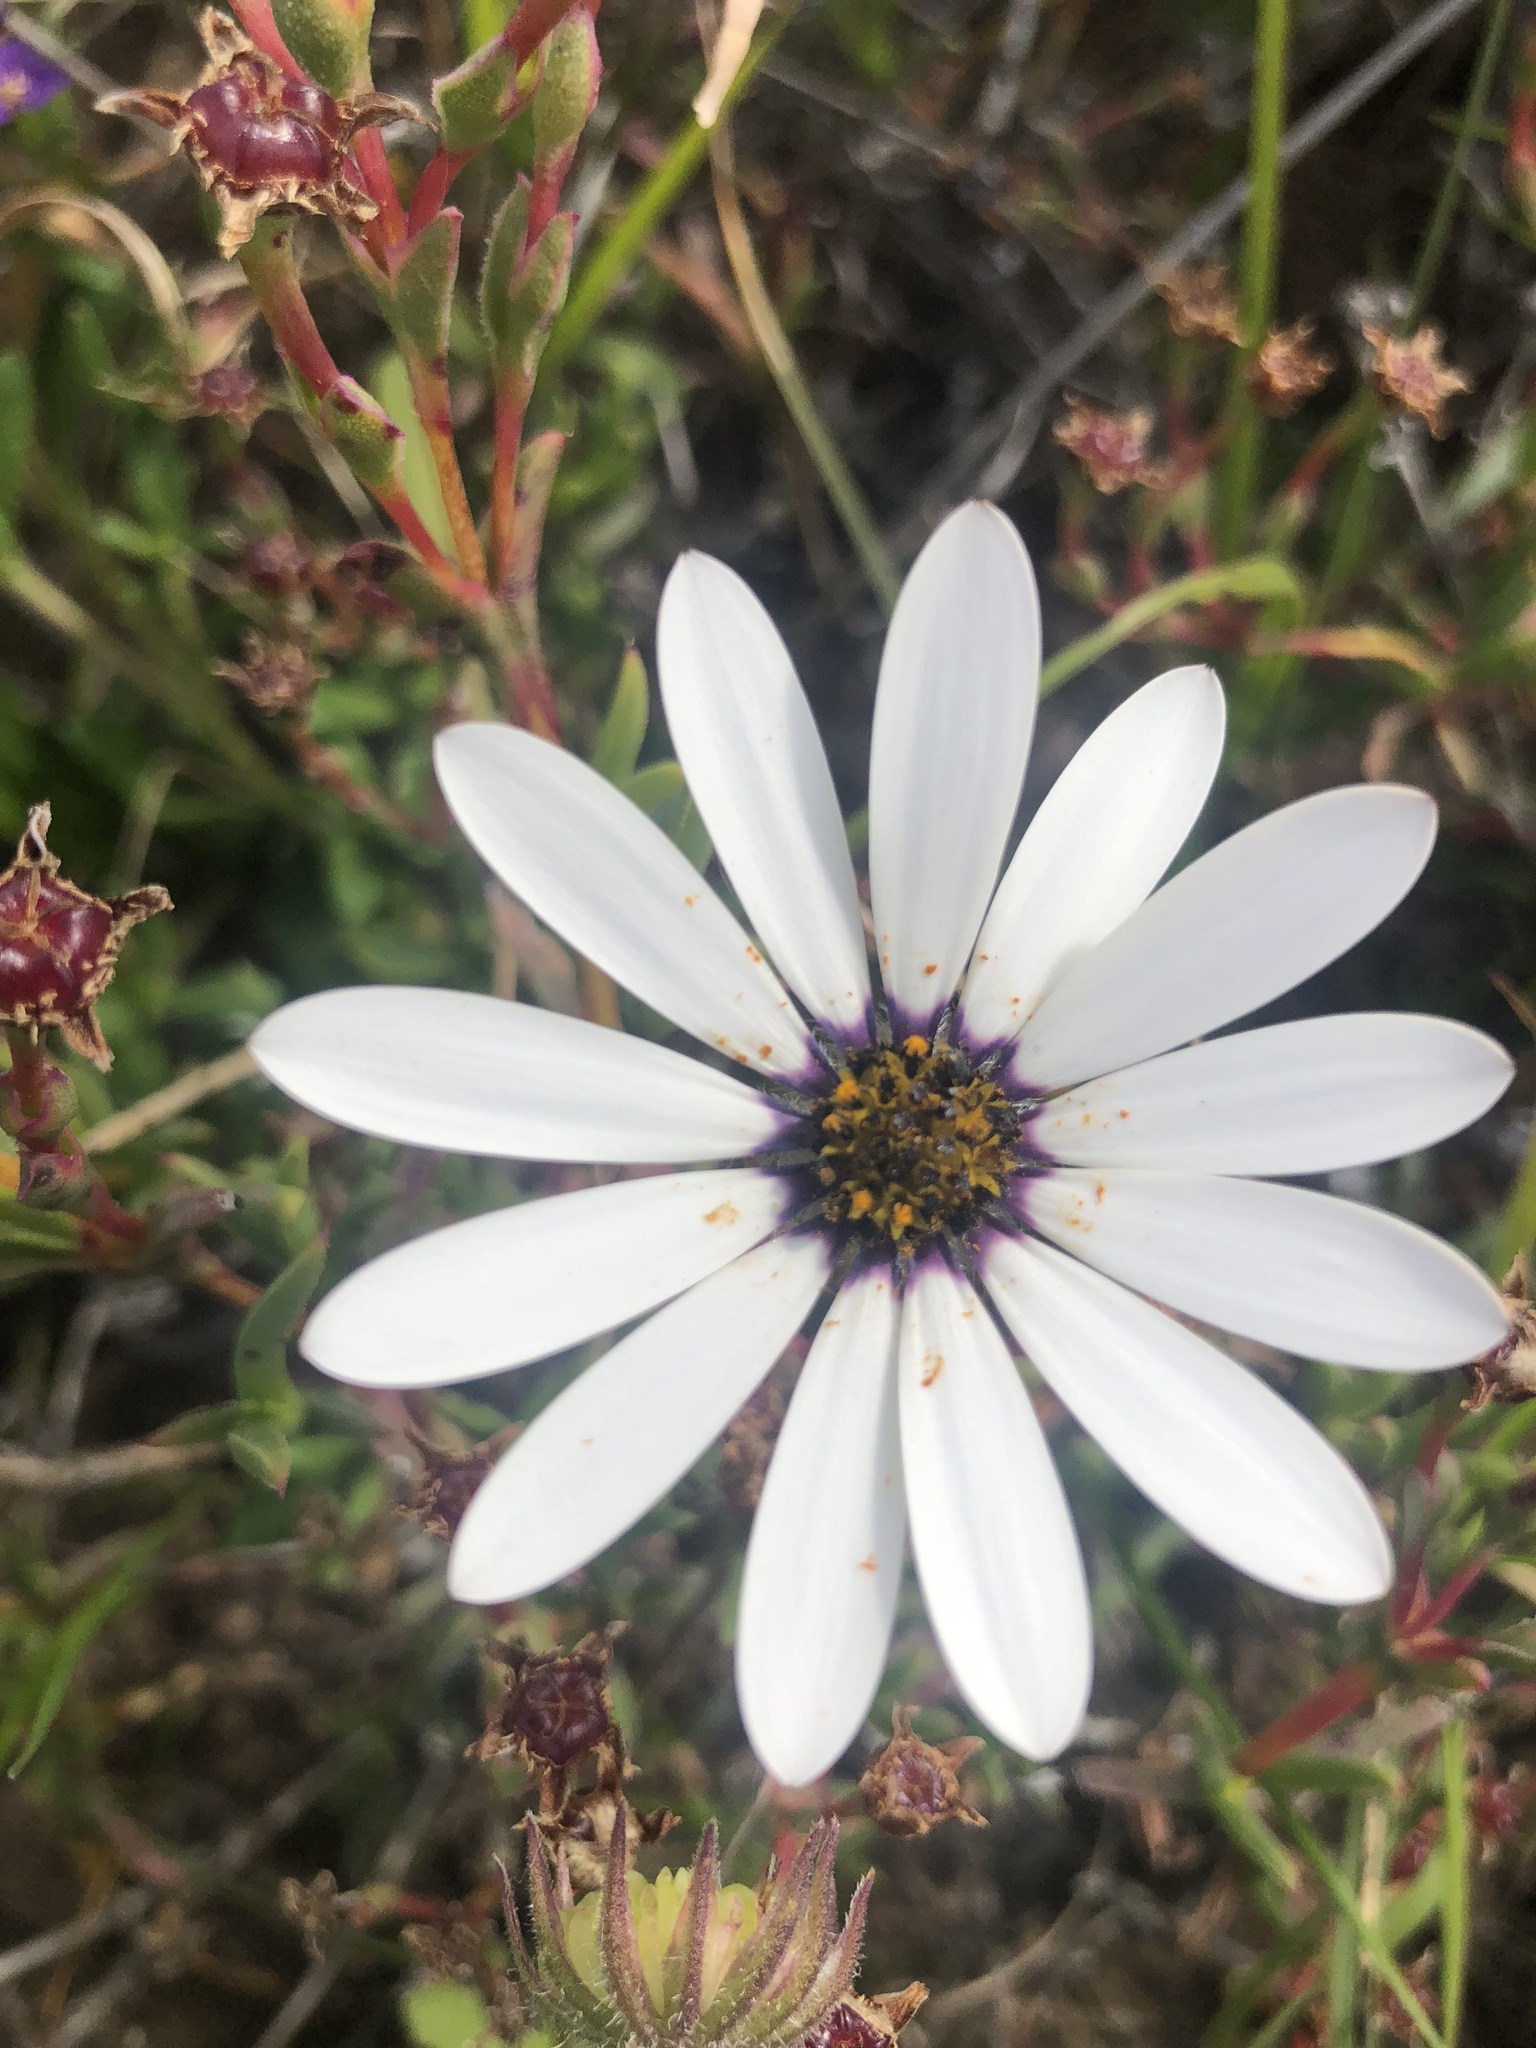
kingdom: Plantae
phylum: Tracheophyta
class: Magnoliopsida
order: Asterales
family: Asteraceae
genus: Dimorphotheca
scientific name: Dimorphotheca pluvialis
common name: Weather prophet
